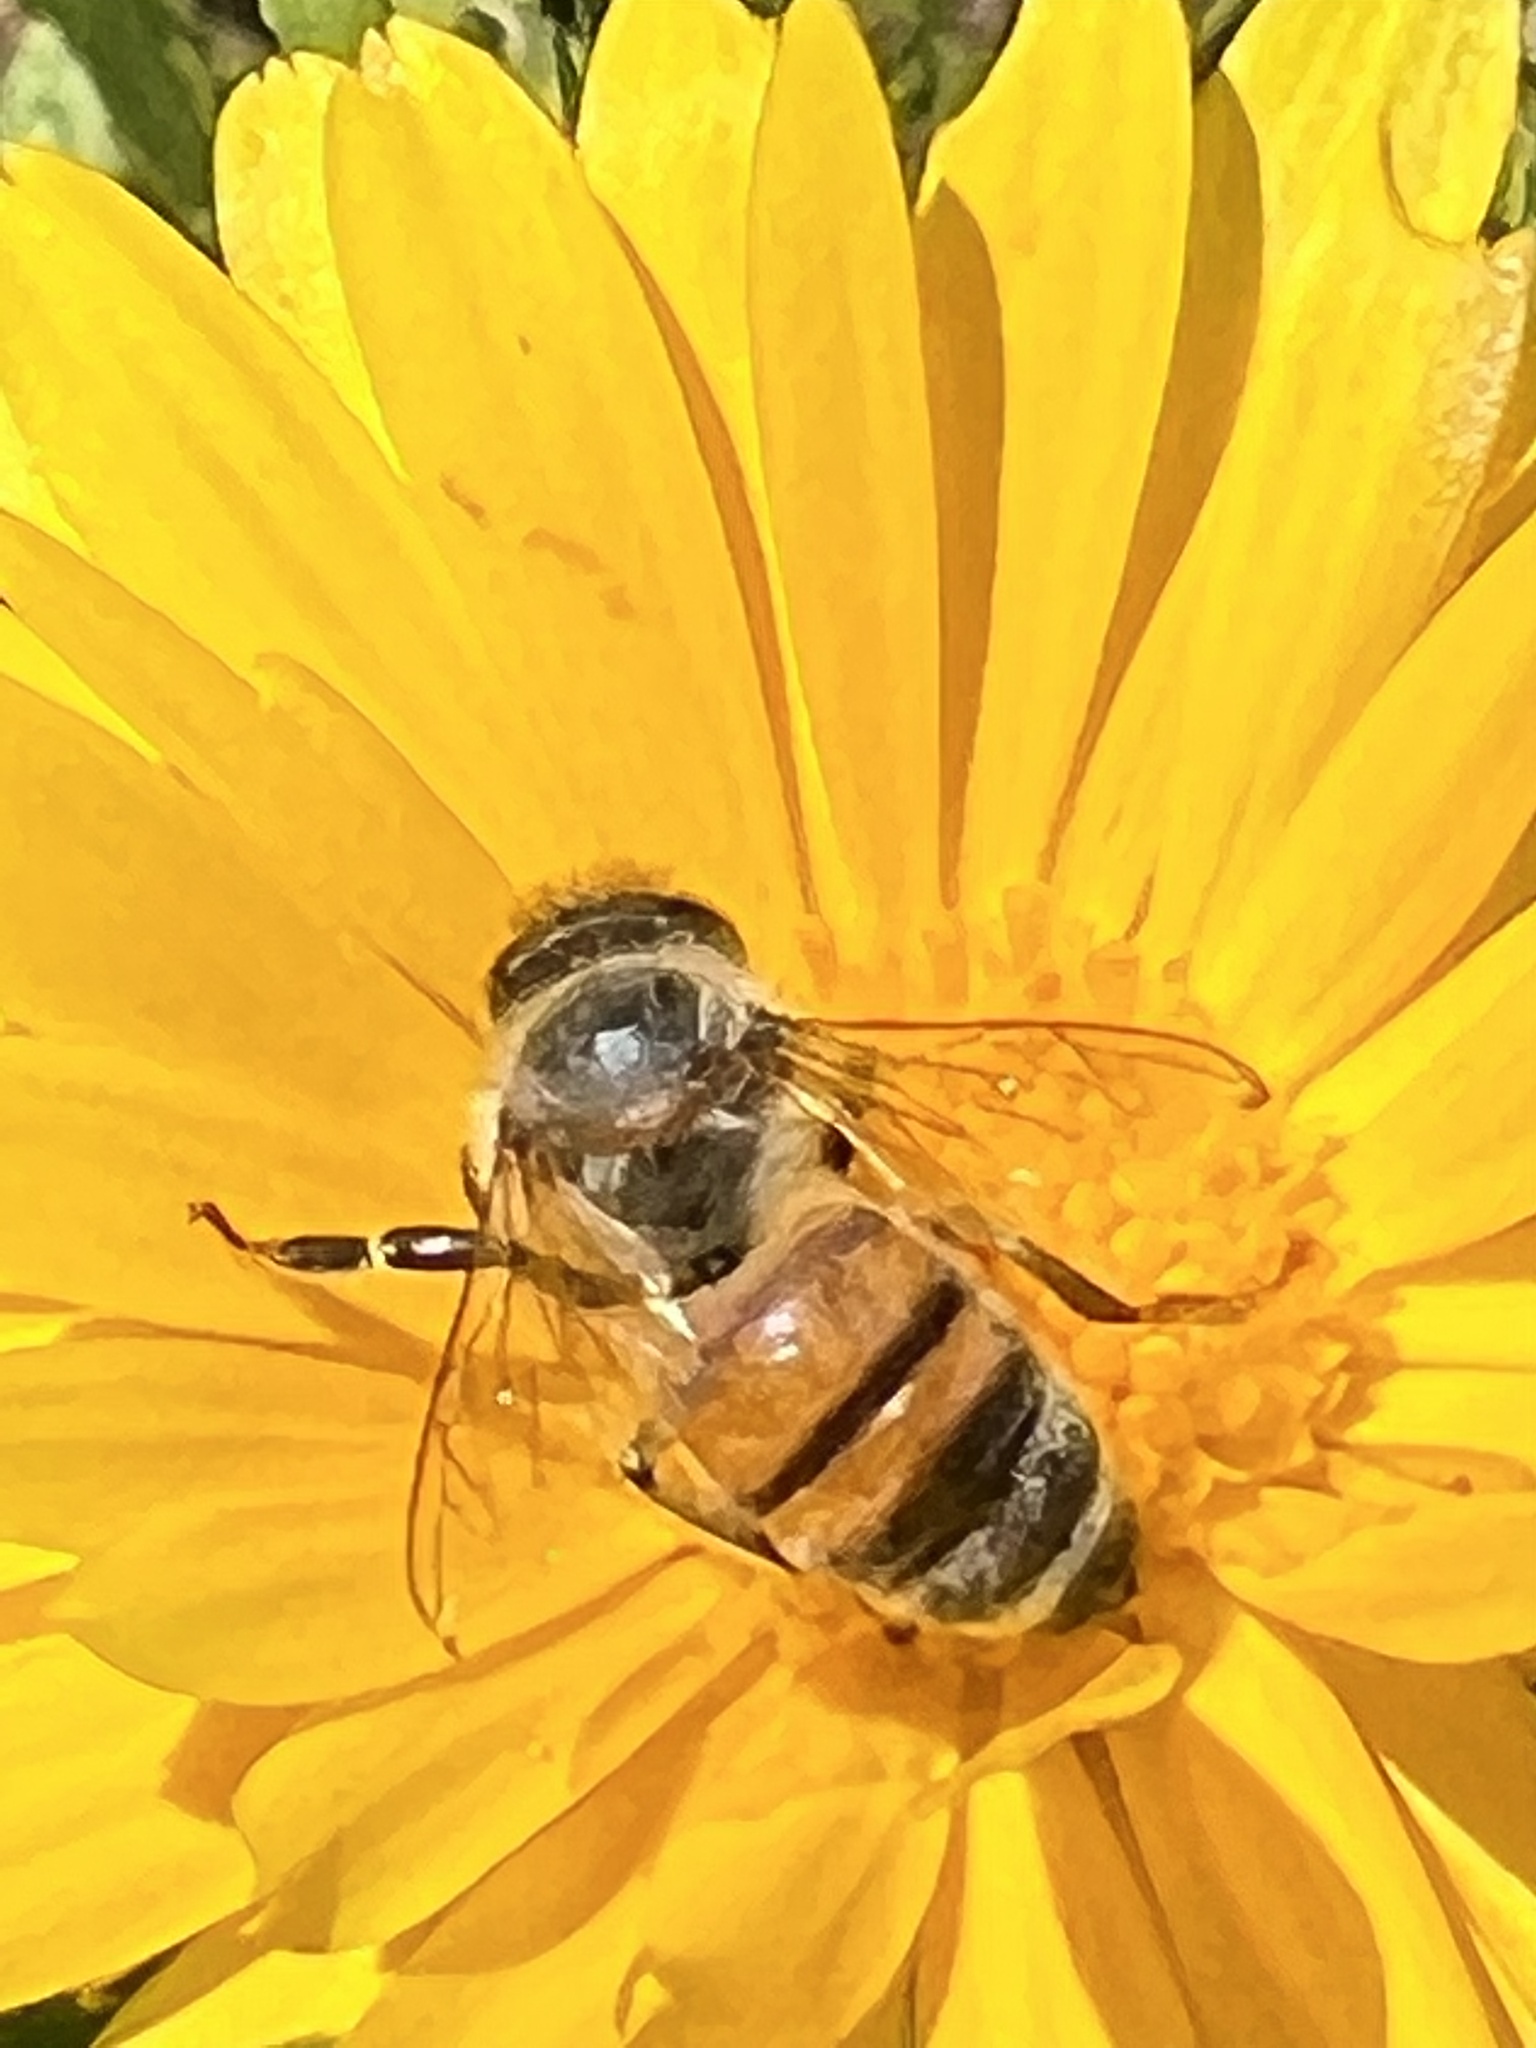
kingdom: Animalia
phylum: Arthropoda
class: Insecta
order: Hymenoptera
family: Apidae
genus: Apis
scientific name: Apis mellifera
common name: Honey bee
